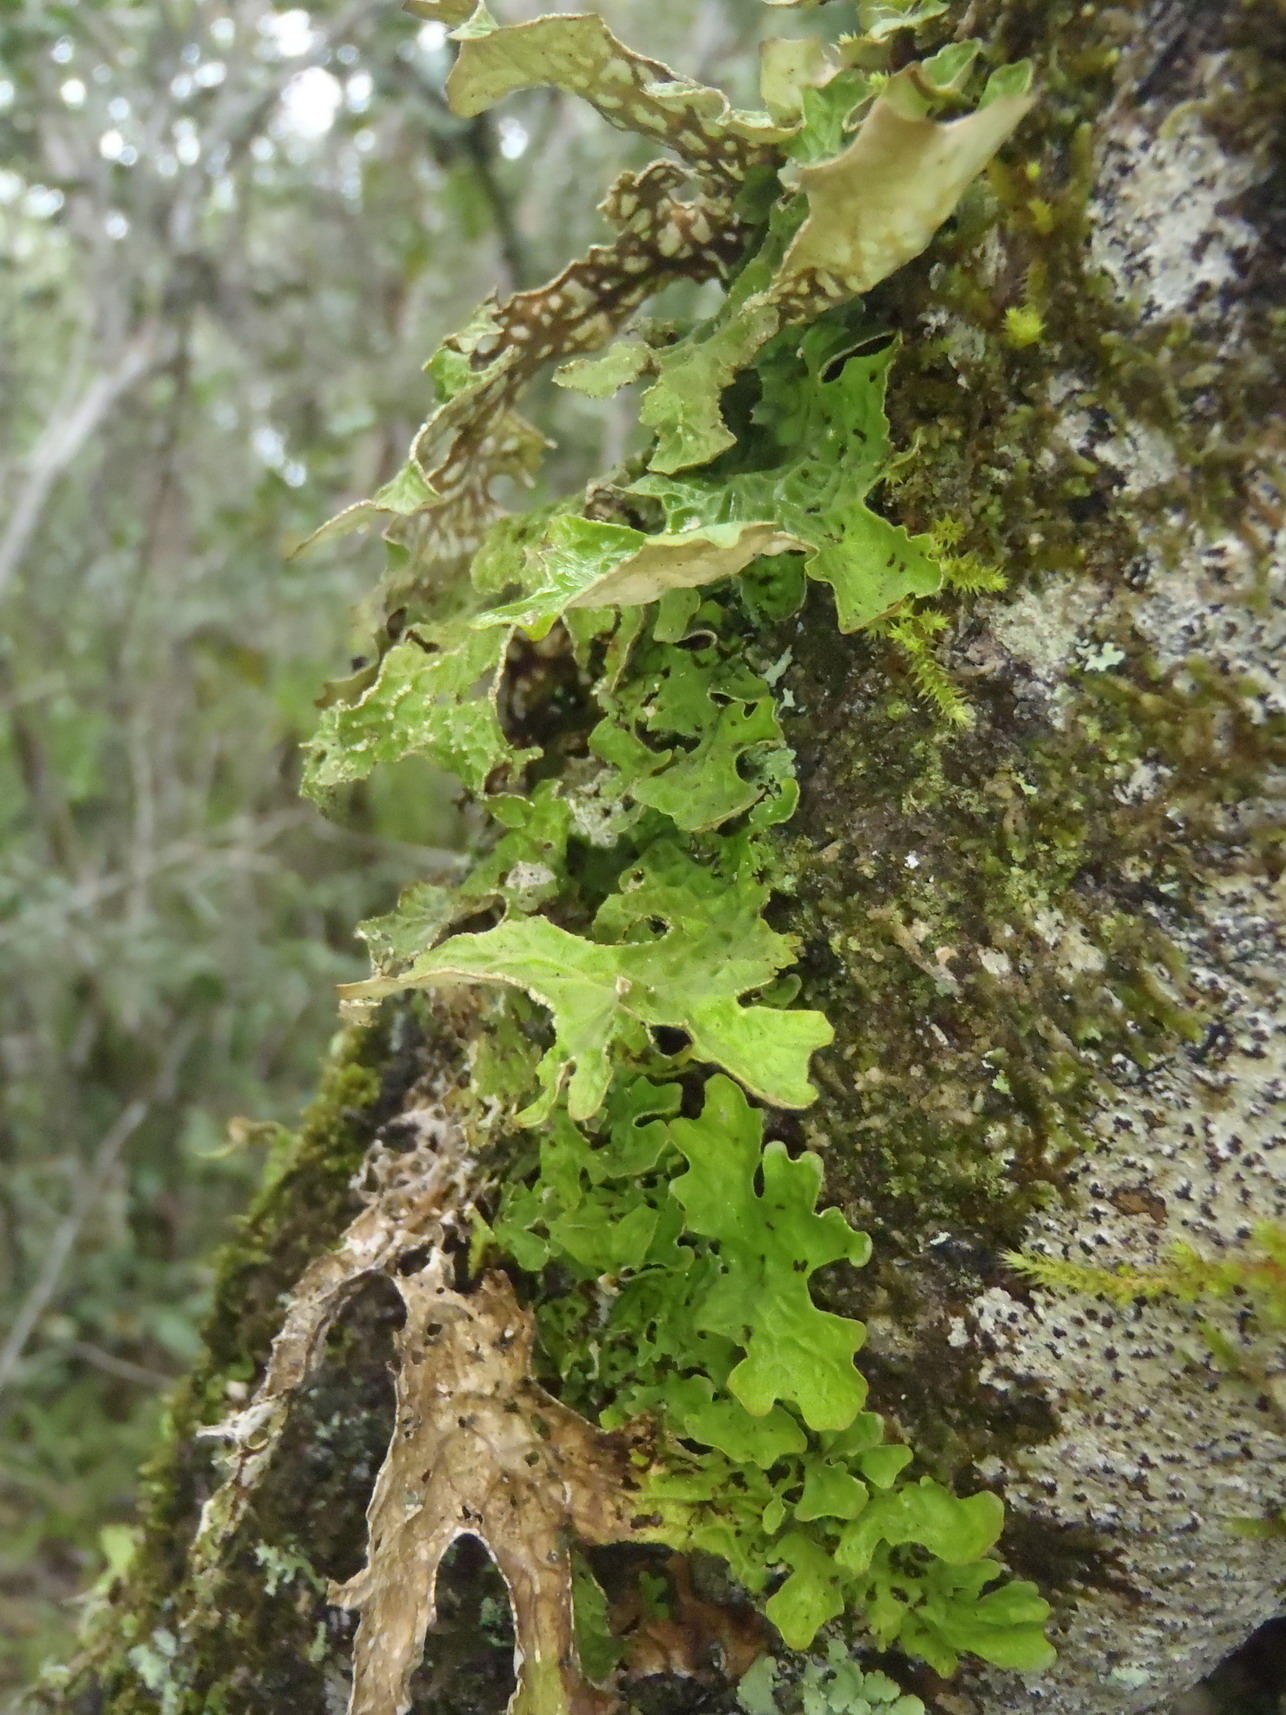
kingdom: Fungi
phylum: Ascomycota
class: Lecanoromycetes
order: Peltigerales
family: Lobariaceae
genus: Lobaria
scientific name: Lobaria pulmonaria
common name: Lungwort
